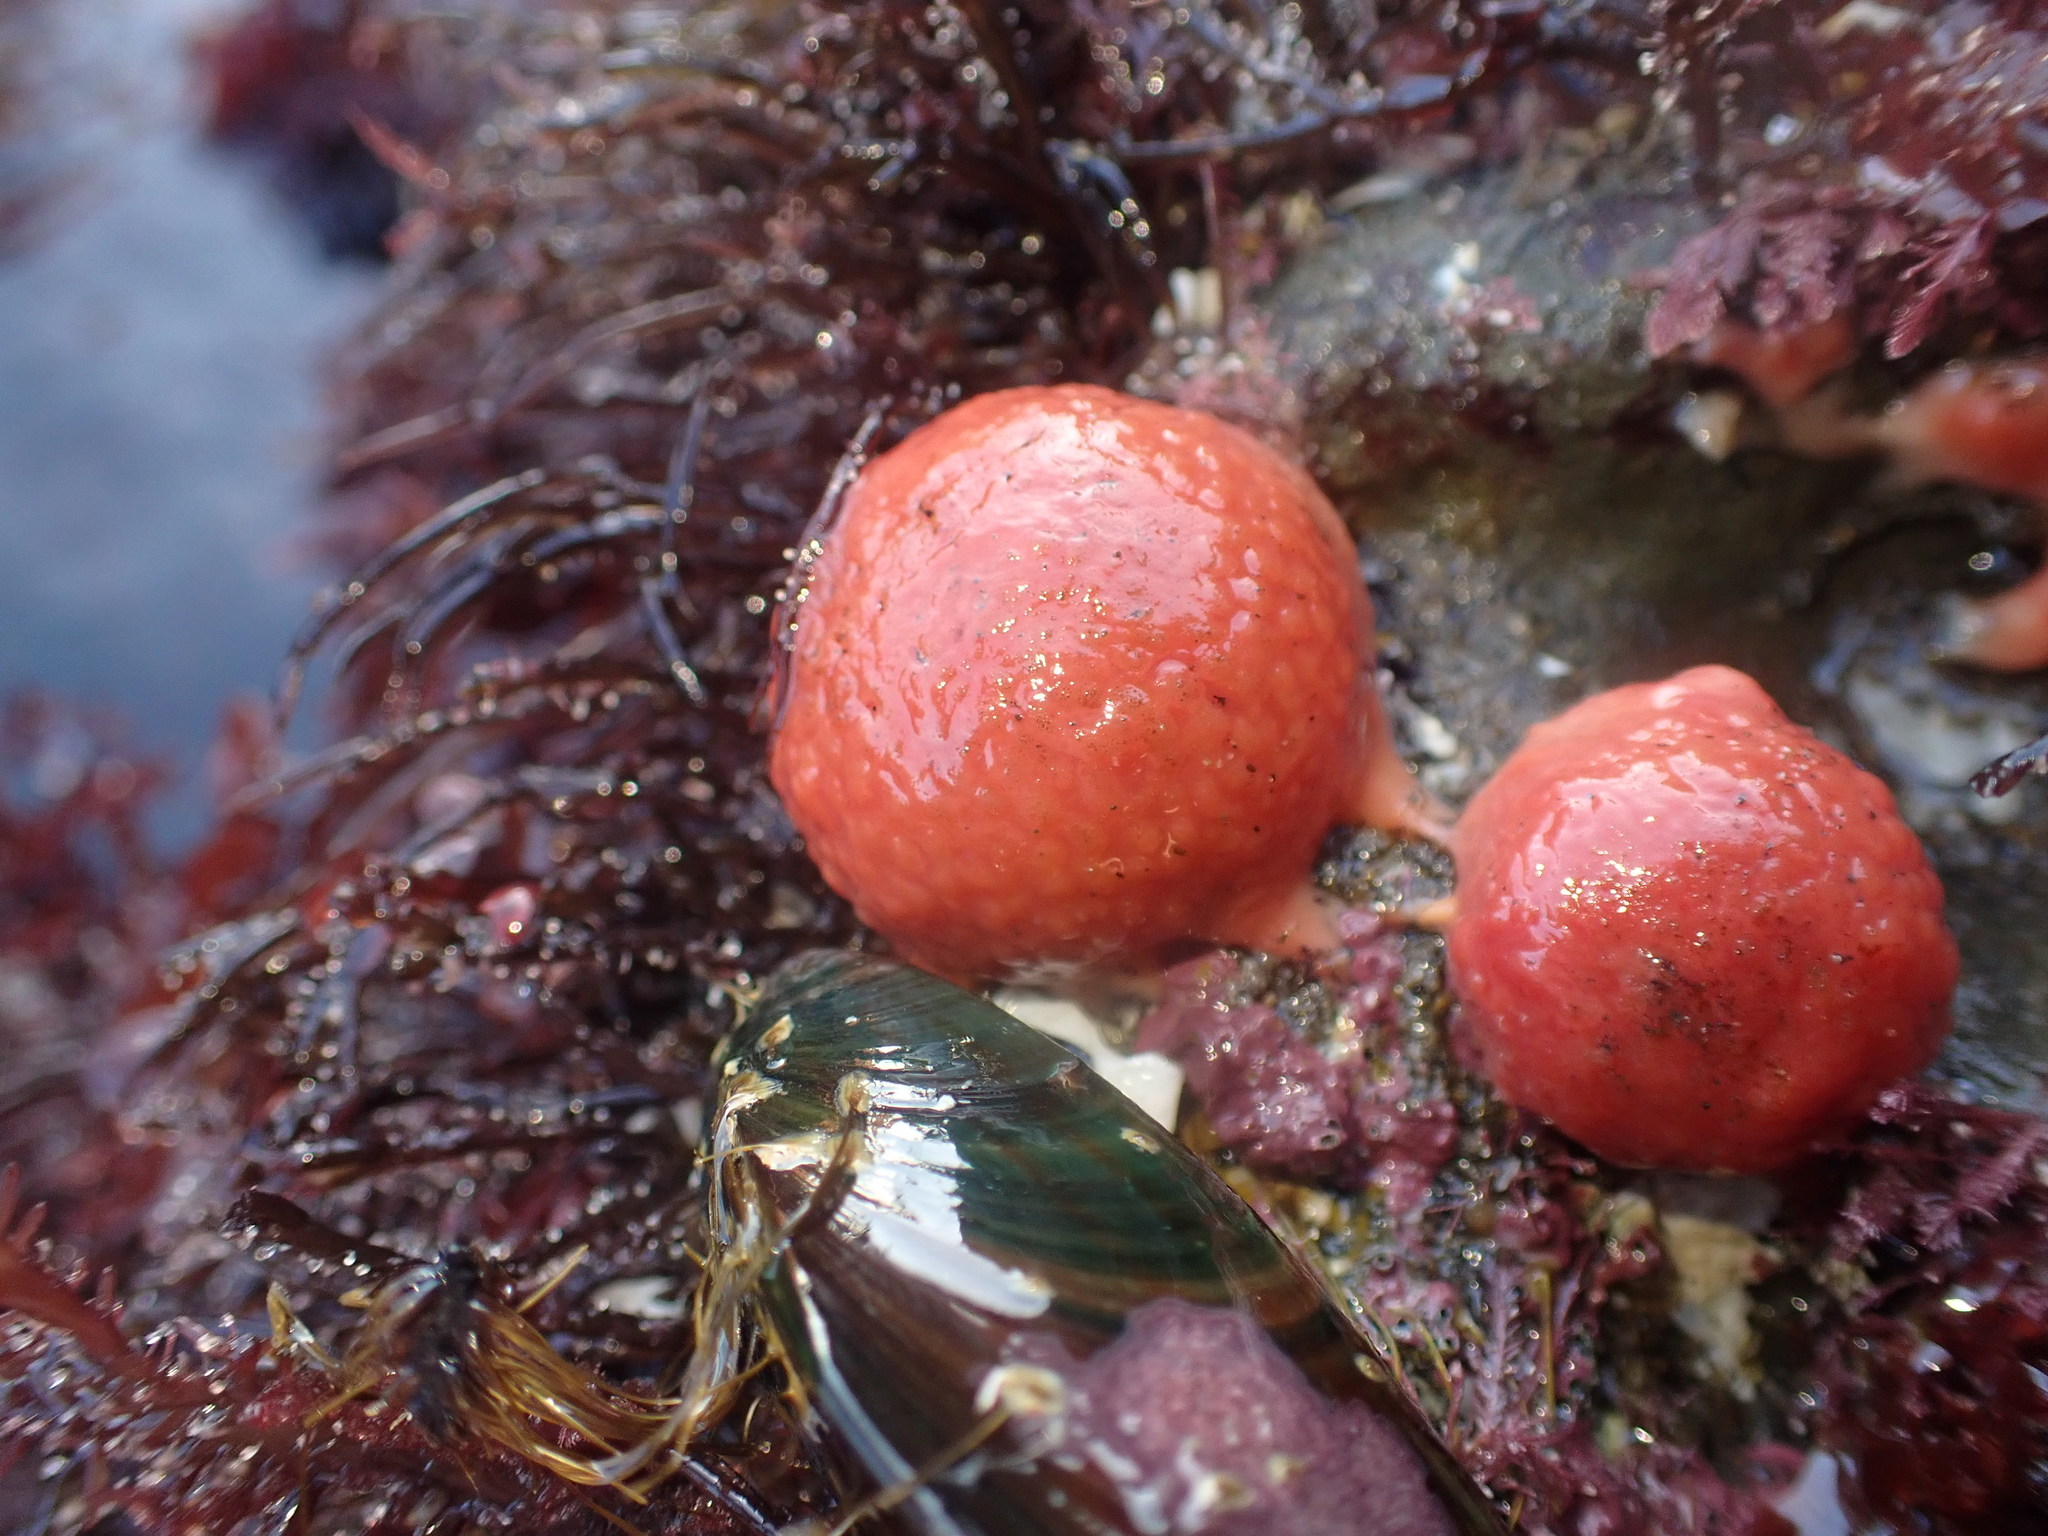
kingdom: Animalia
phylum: Porifera
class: Demospongiae
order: Tethyida
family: Tethyidae
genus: Tethya
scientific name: Tethya bergquistae
